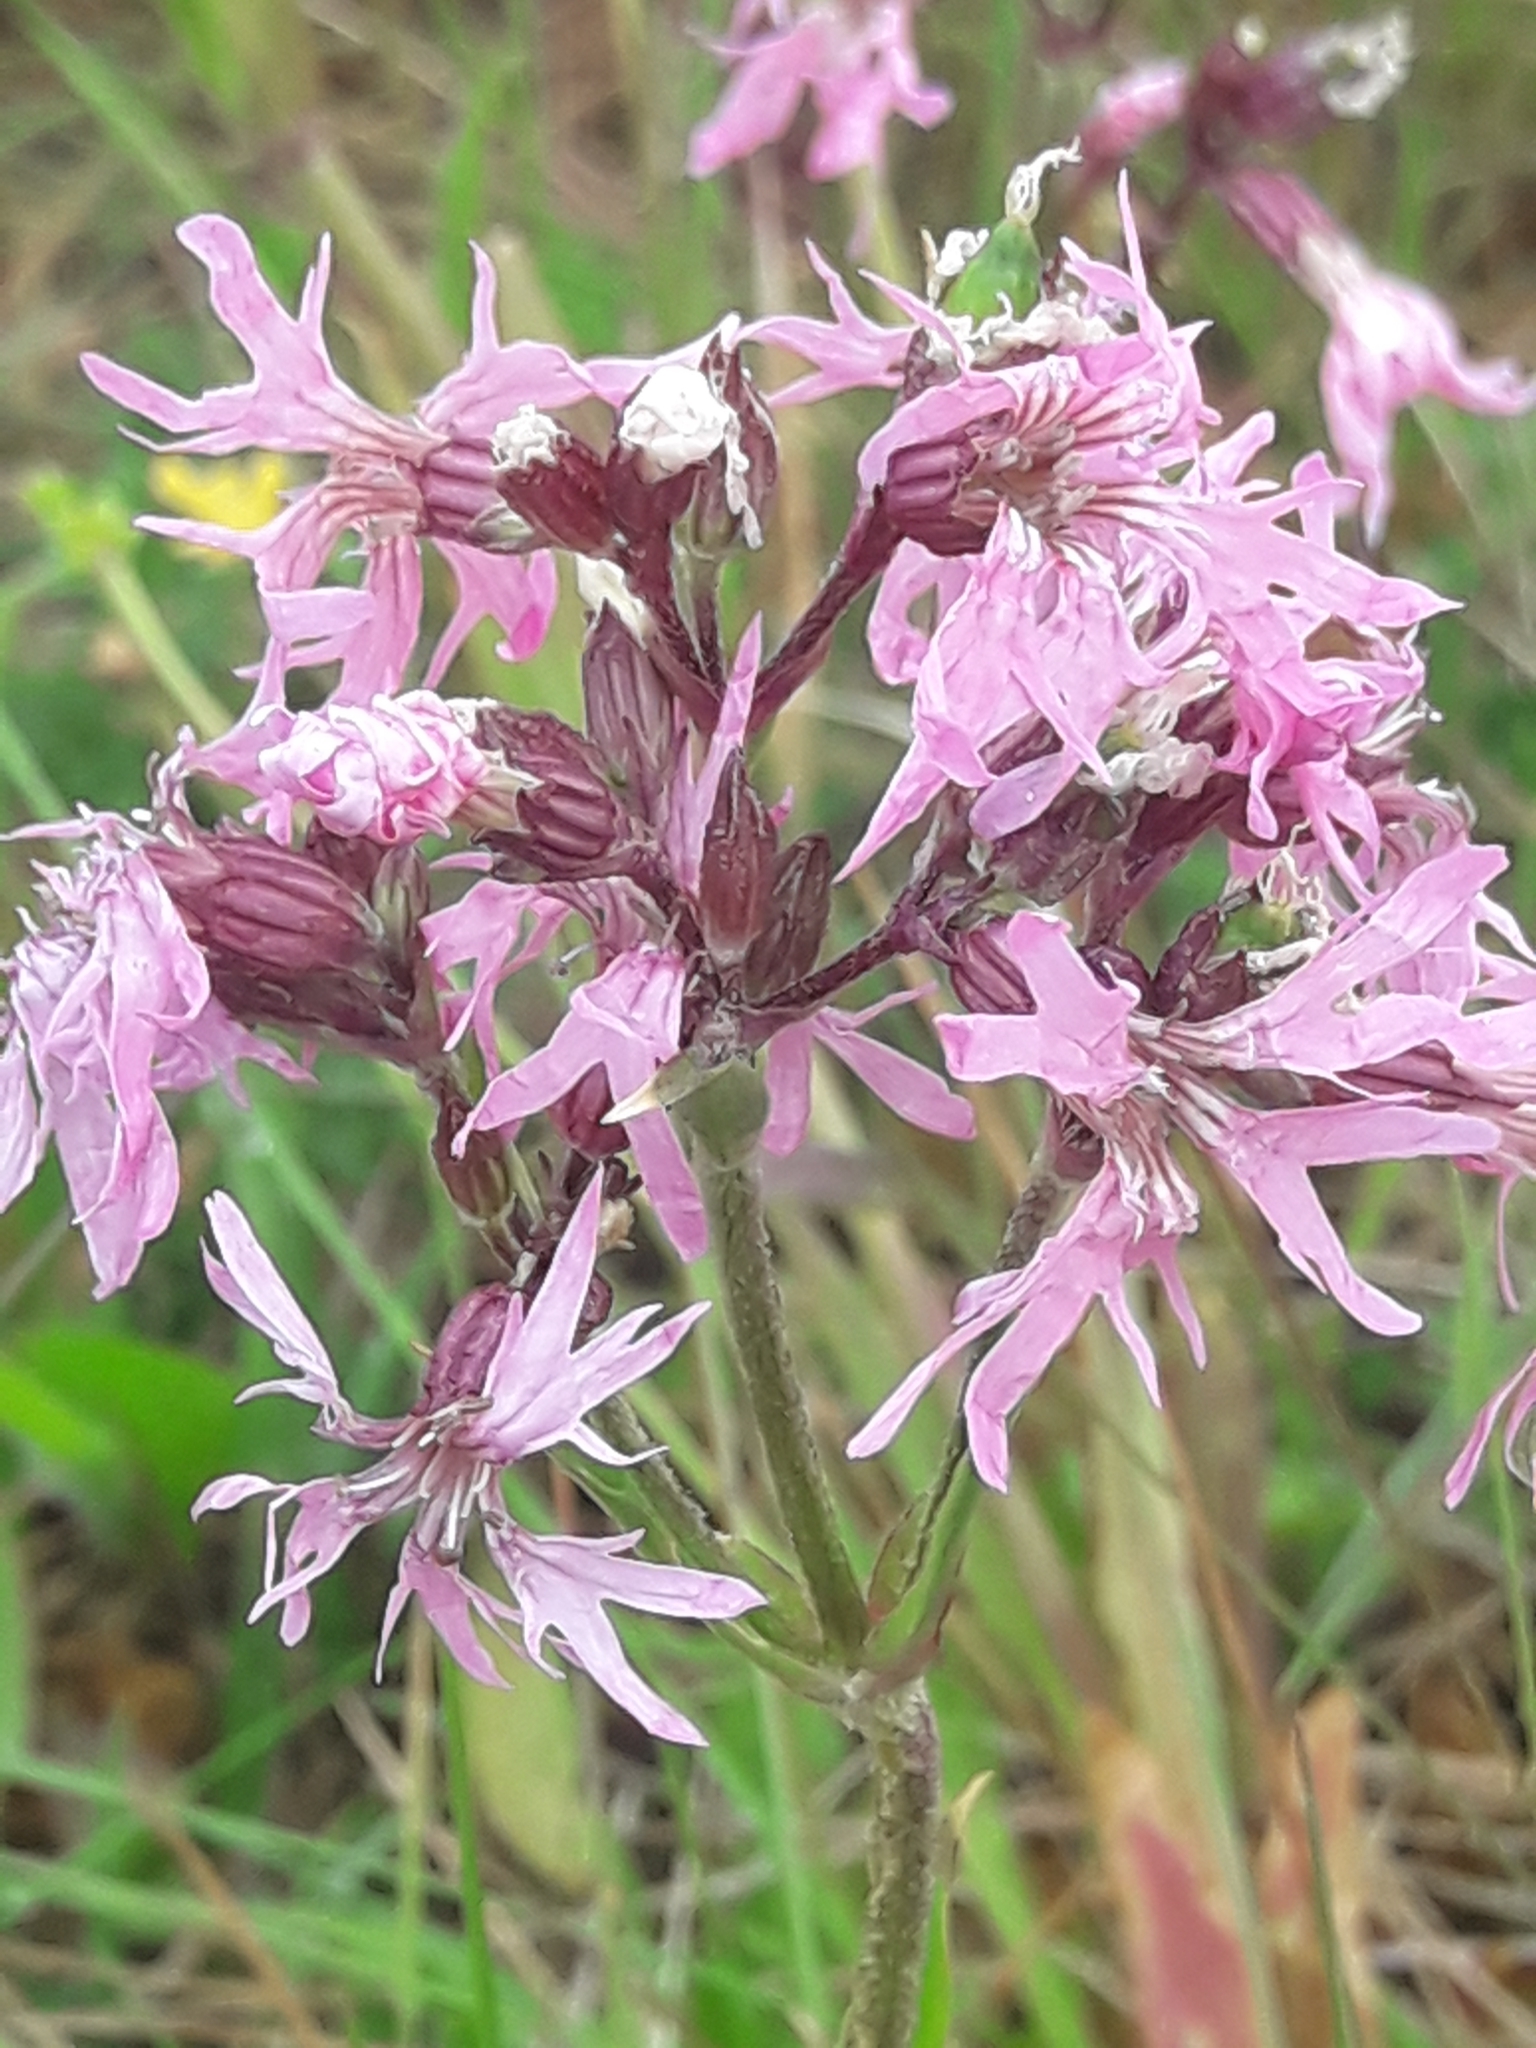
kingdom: Plantae
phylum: Tracheophyta
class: Magnoliopsida
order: Caryophyllales
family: Caryophyllaceae
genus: Silene
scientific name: Silene flos-cuculi
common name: Ragged-robin
